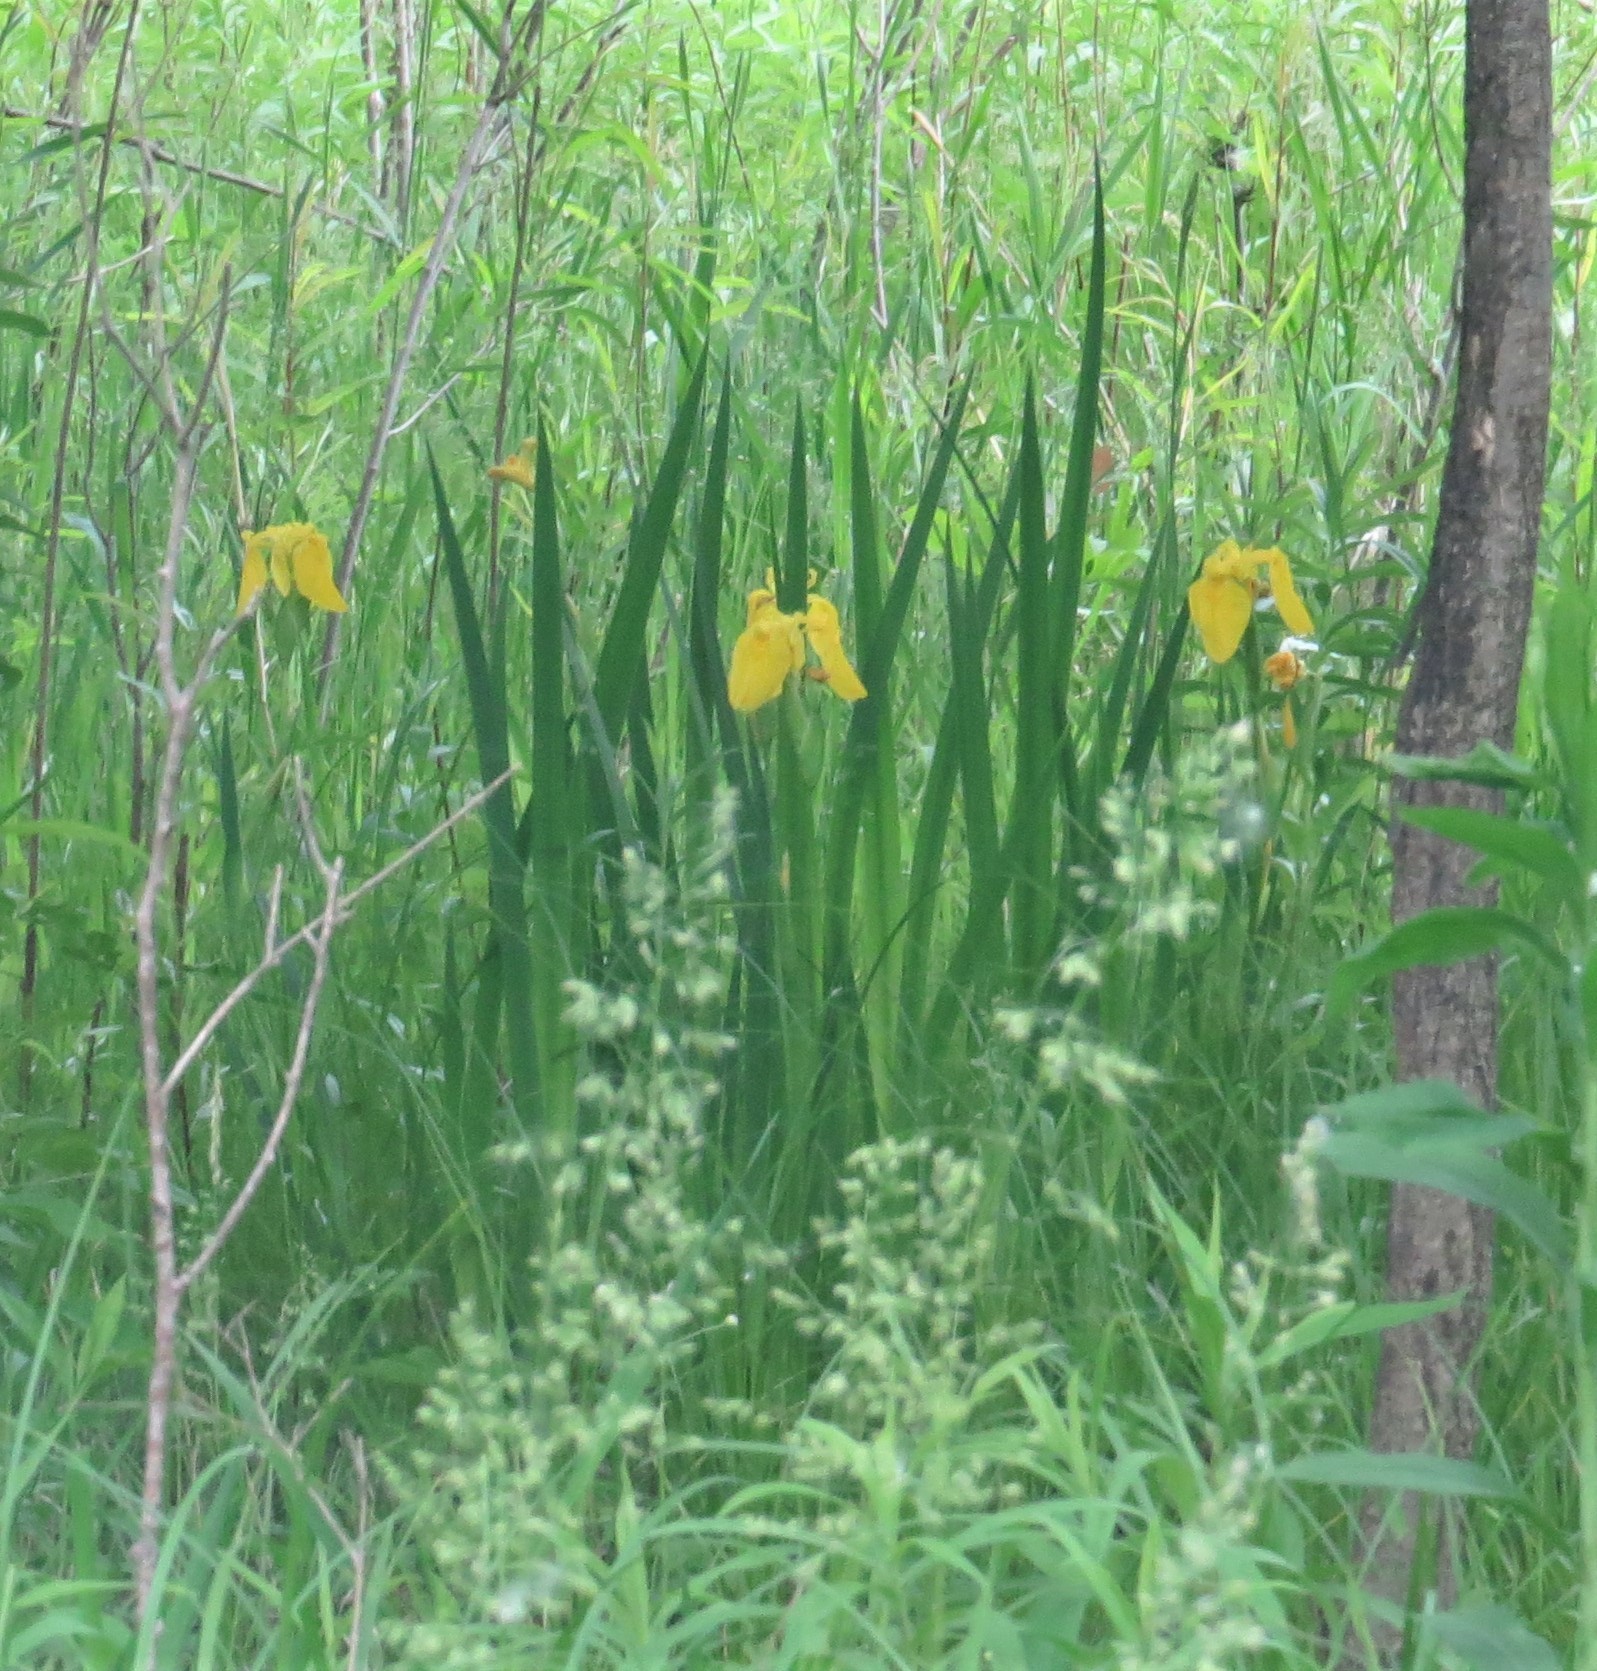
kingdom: Plantae
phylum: Tracheophyta
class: Liliopsida
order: Asparagales
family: Iridaceae
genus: Iris
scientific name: Iris pseudacorus
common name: Yellow flag
